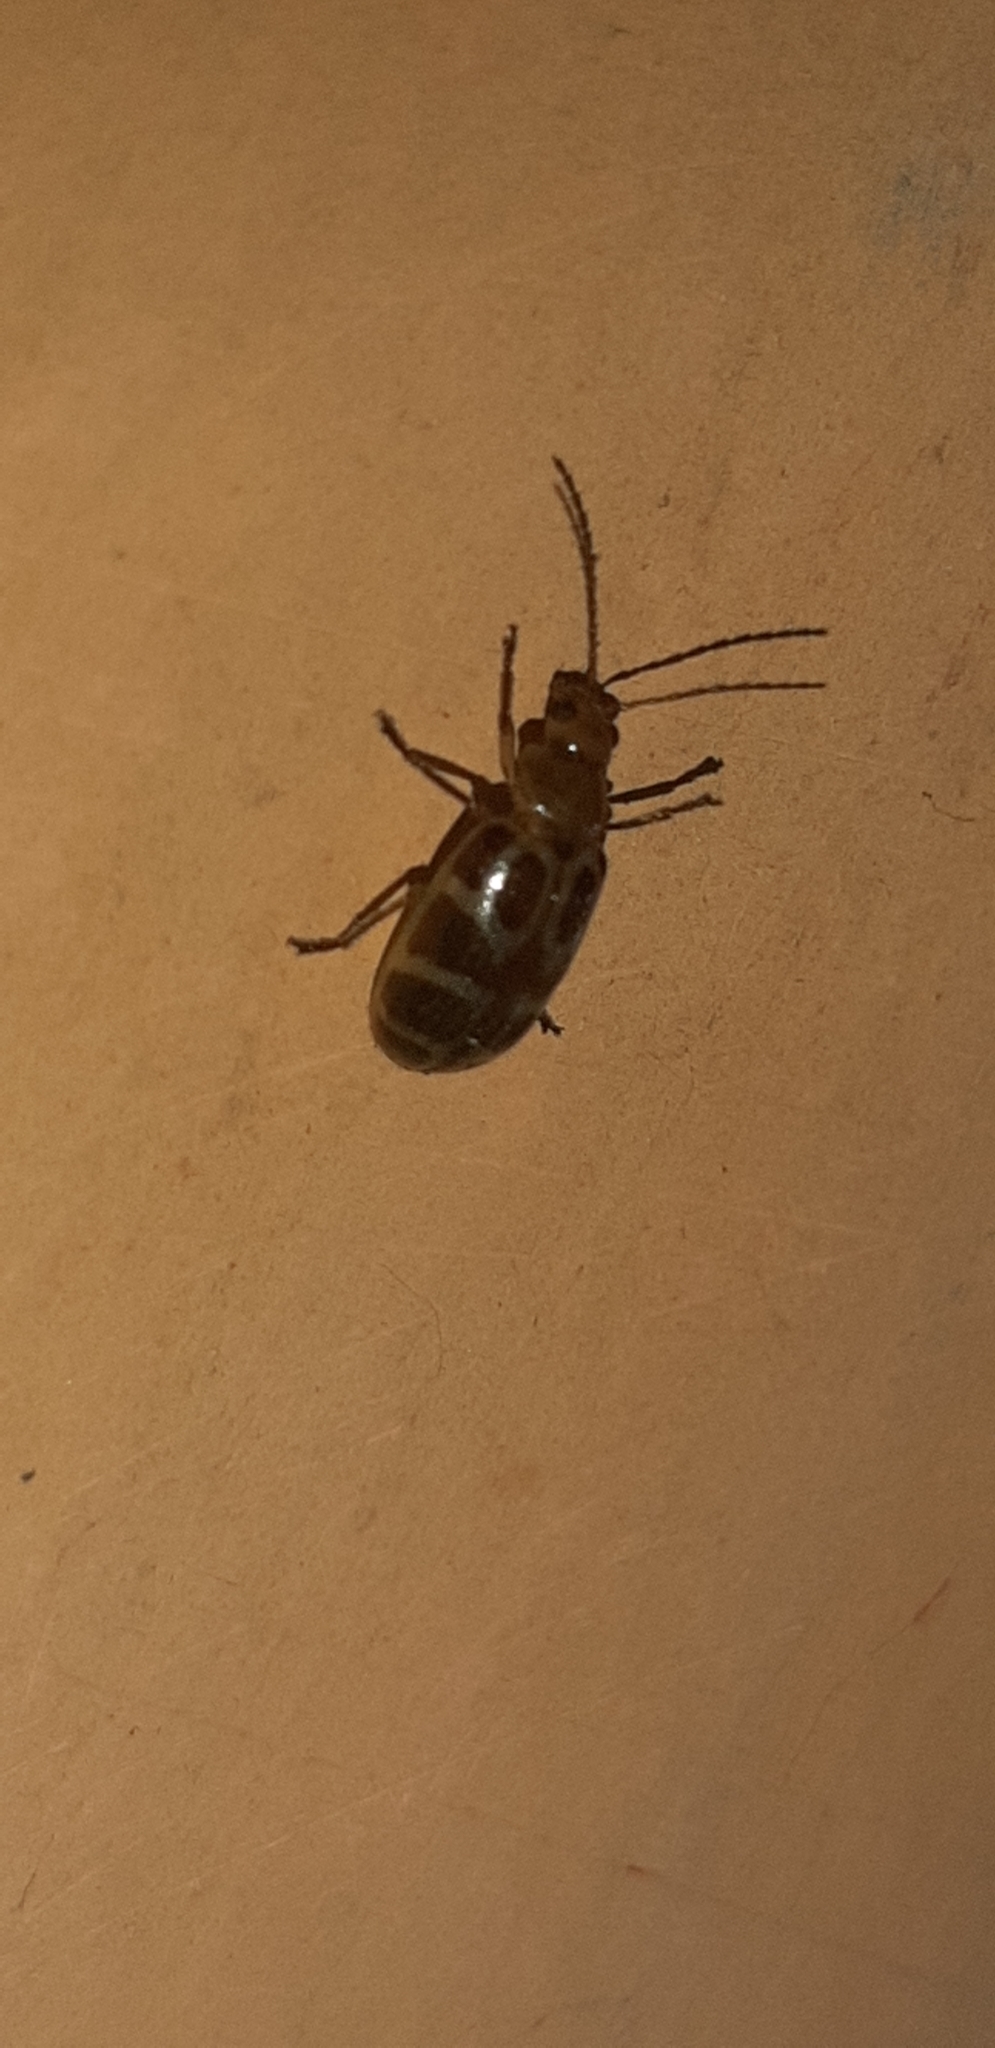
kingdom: Animalia
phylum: Arthropoda
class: Insecta
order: Coleoptera
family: Chrysomelidae
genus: Exora
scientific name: Exora olivacea
